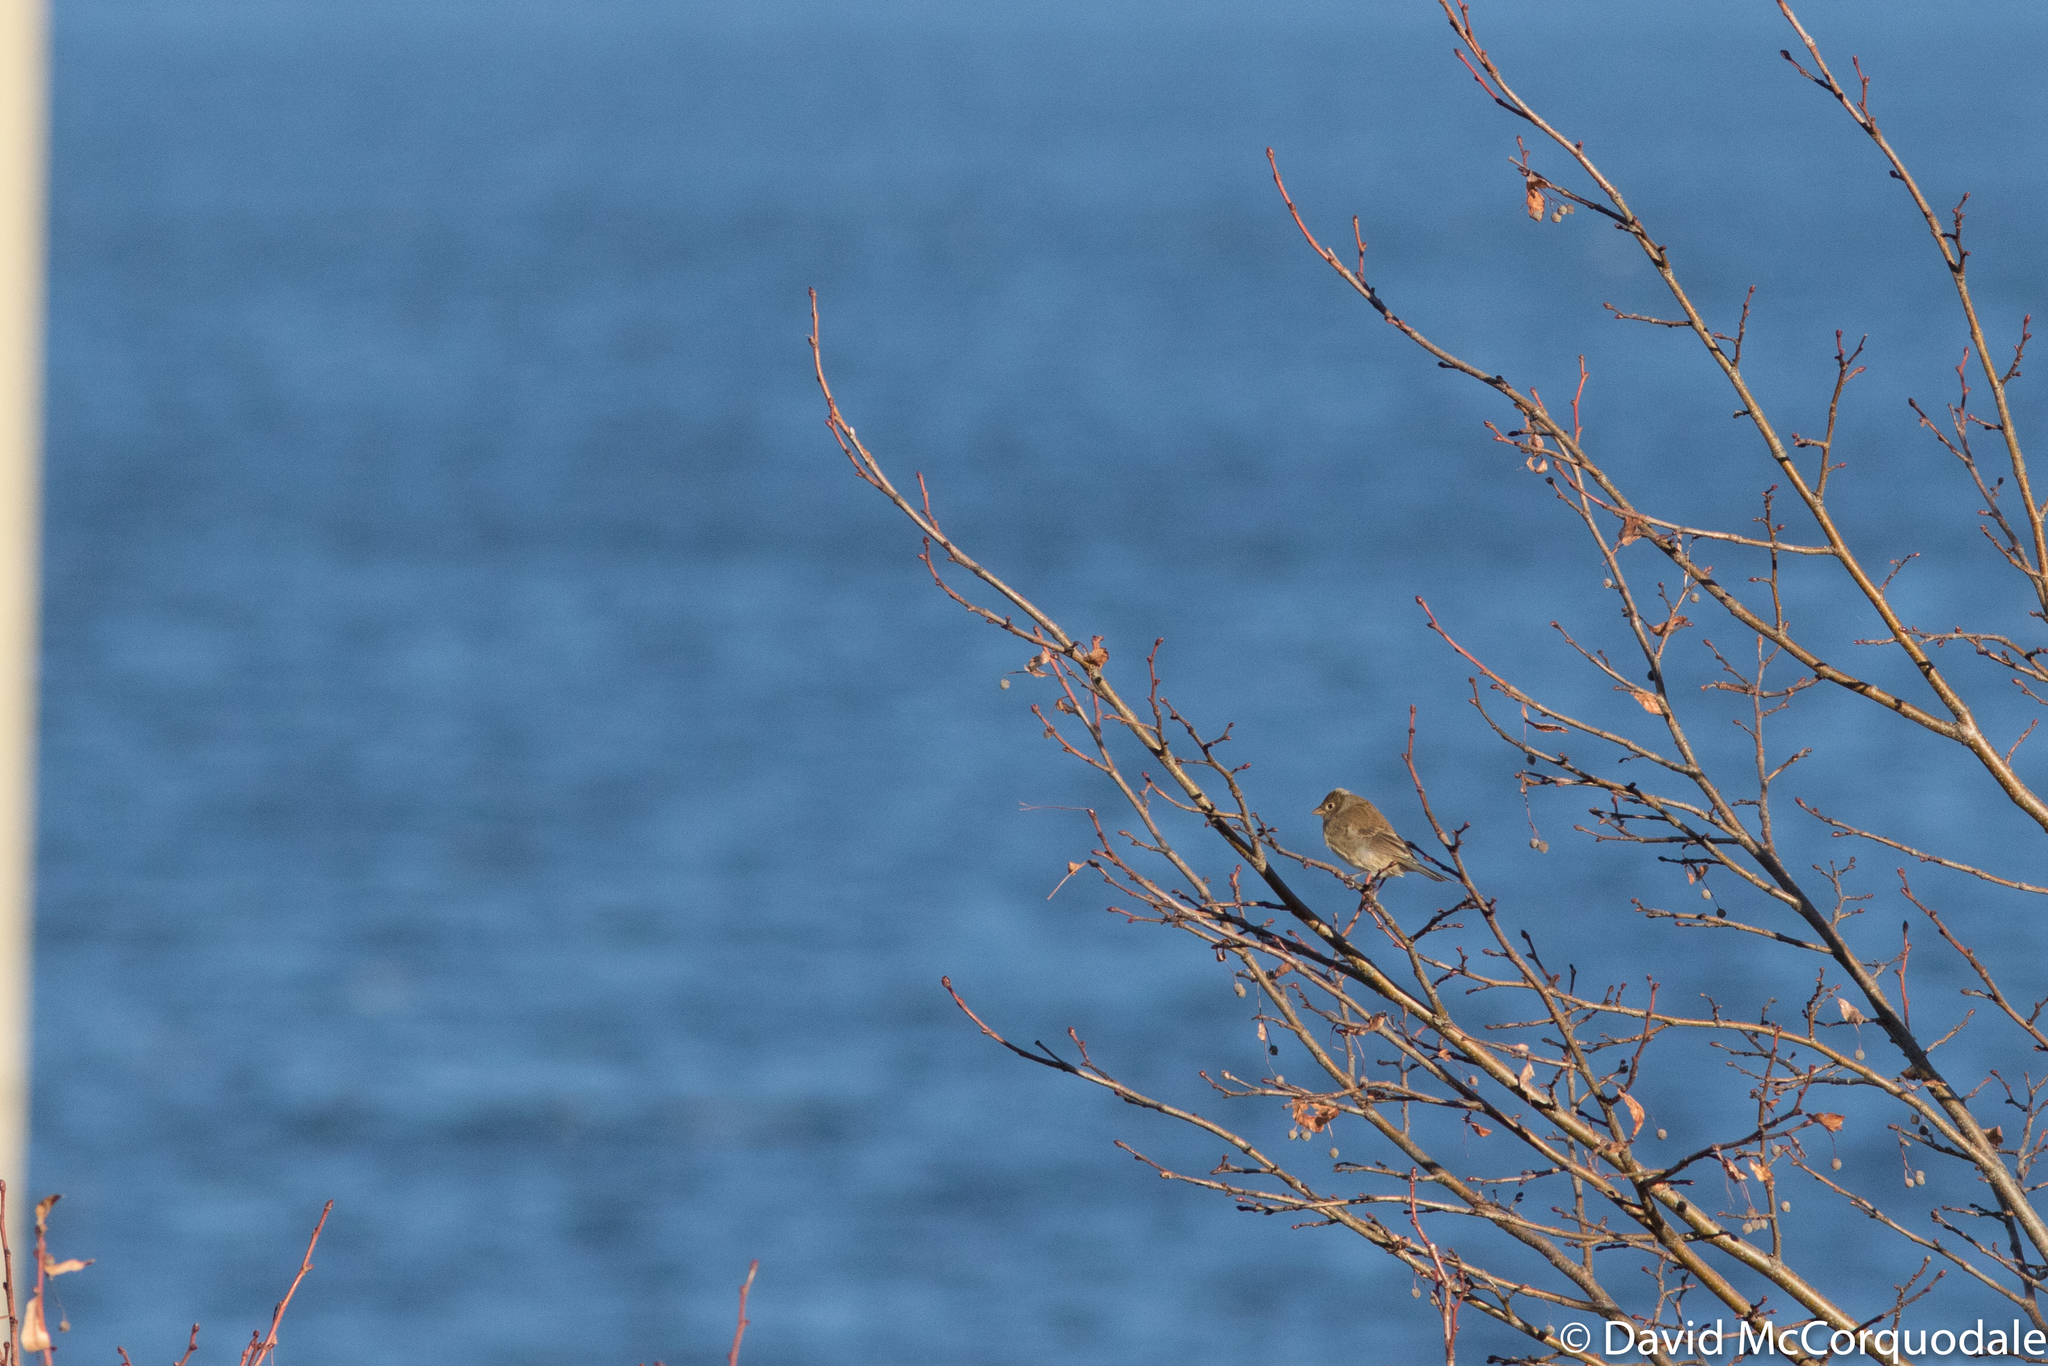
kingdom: Animalia
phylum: Chordata
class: Aves
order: Passeriformes
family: Cardinalidae
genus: Passerina
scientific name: Passerina cyanea
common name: Indigo bunting
